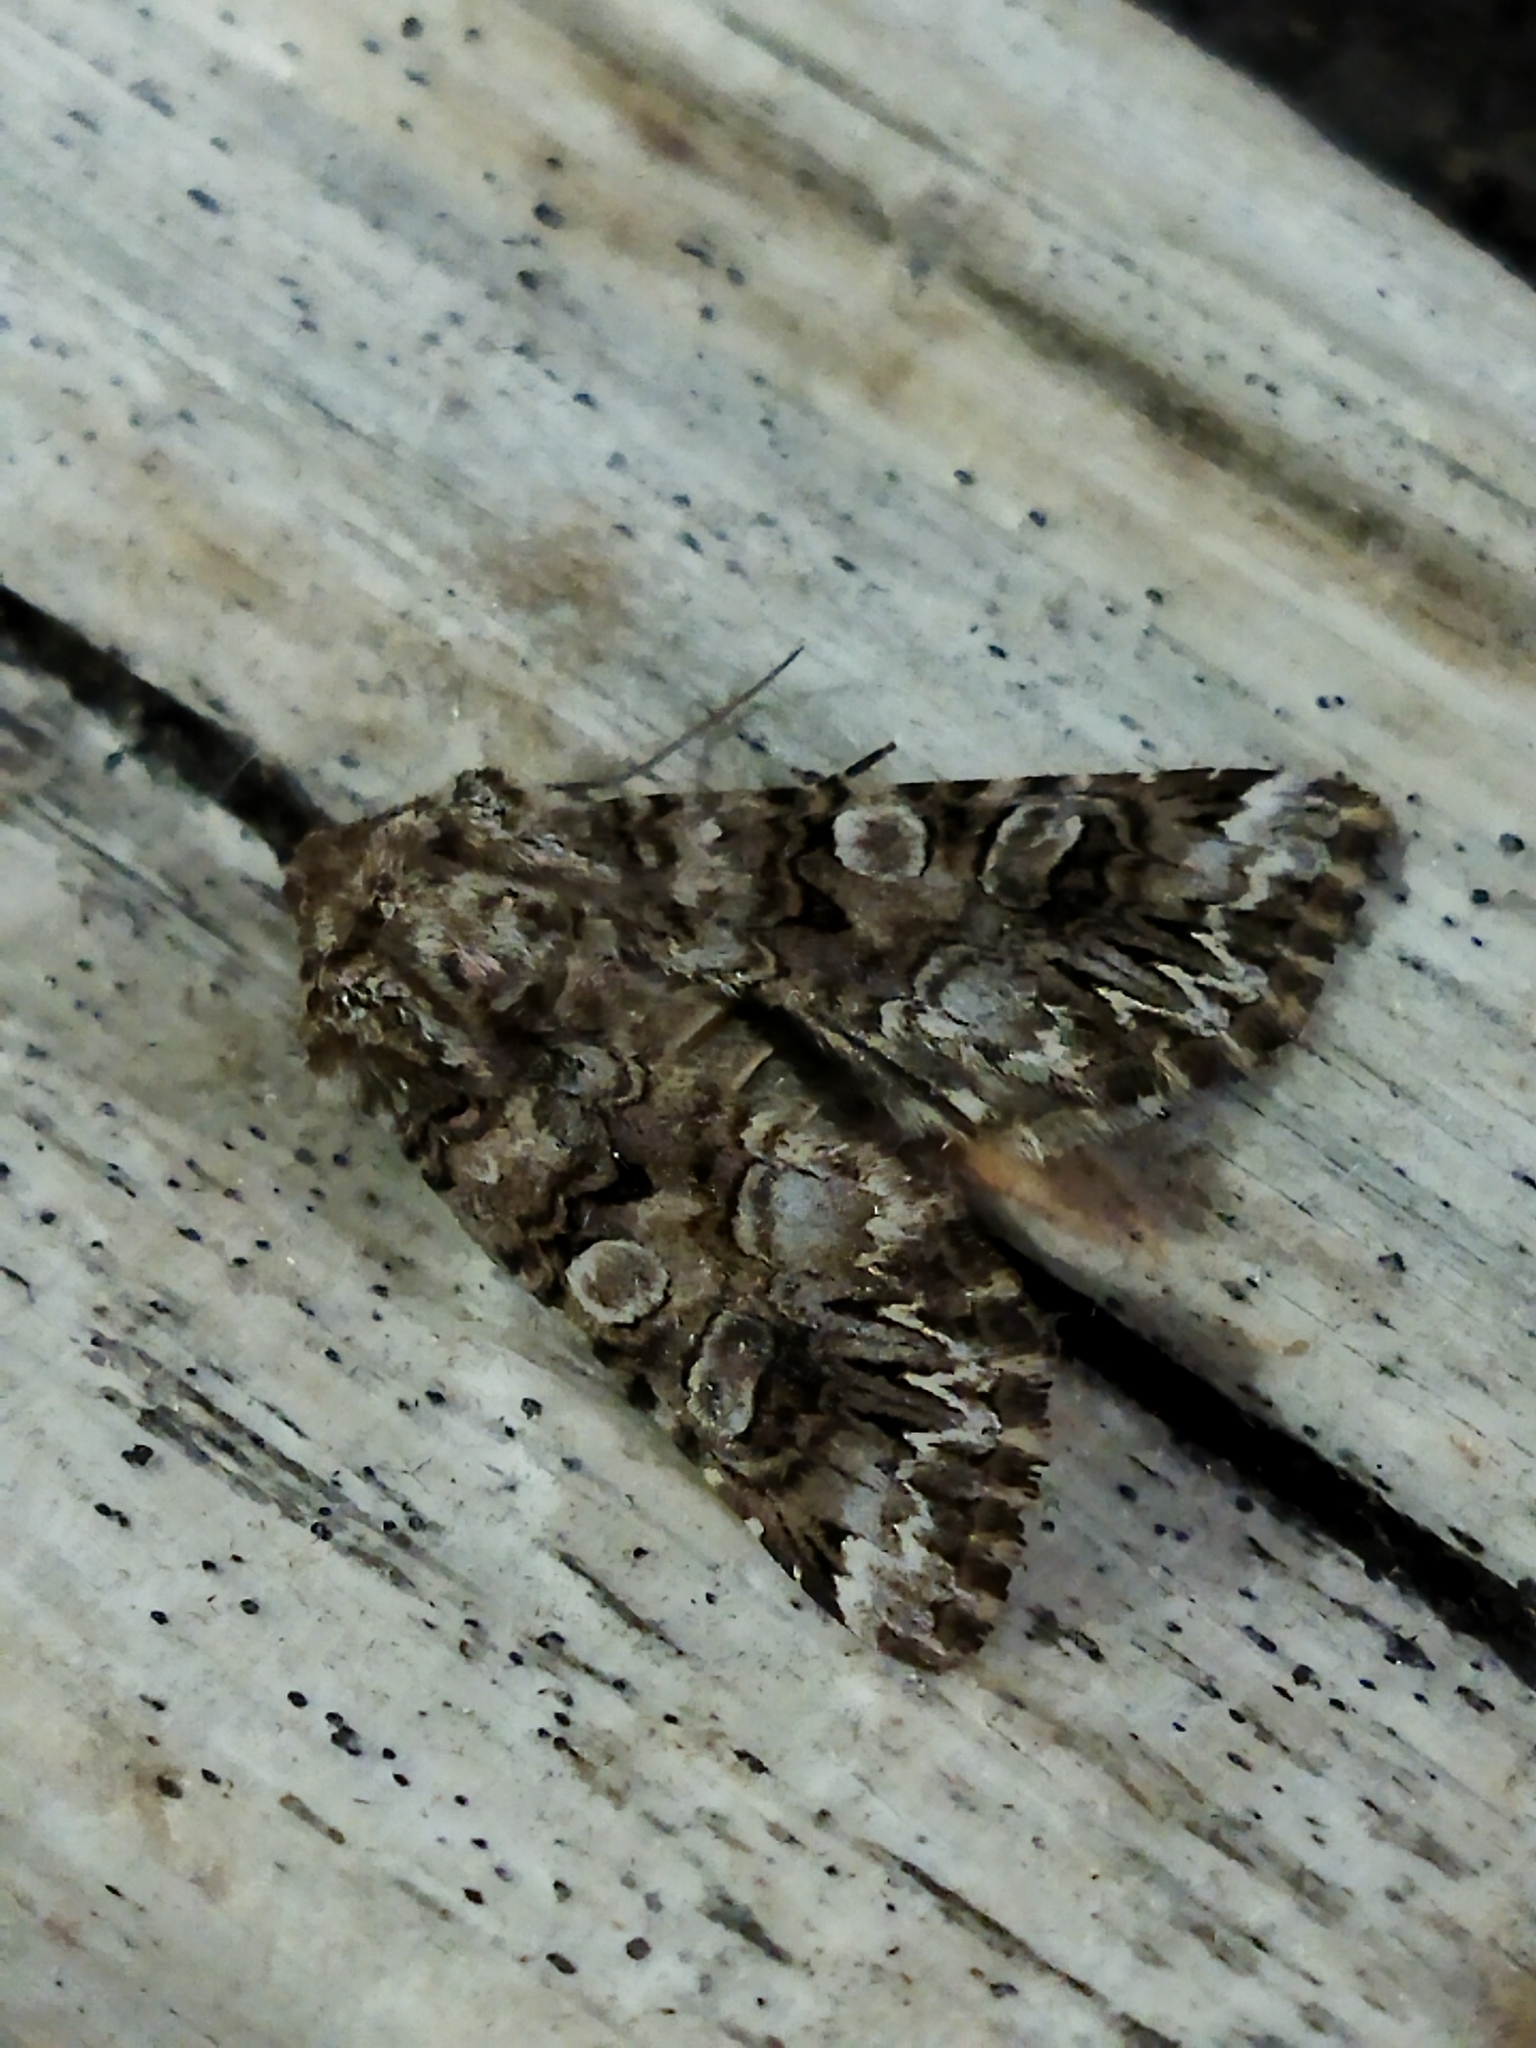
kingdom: Animalia
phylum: Arthropoda
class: Insecta
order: Lepidoptera
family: Noctuidae
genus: Hadena
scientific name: Hadena syriaca
